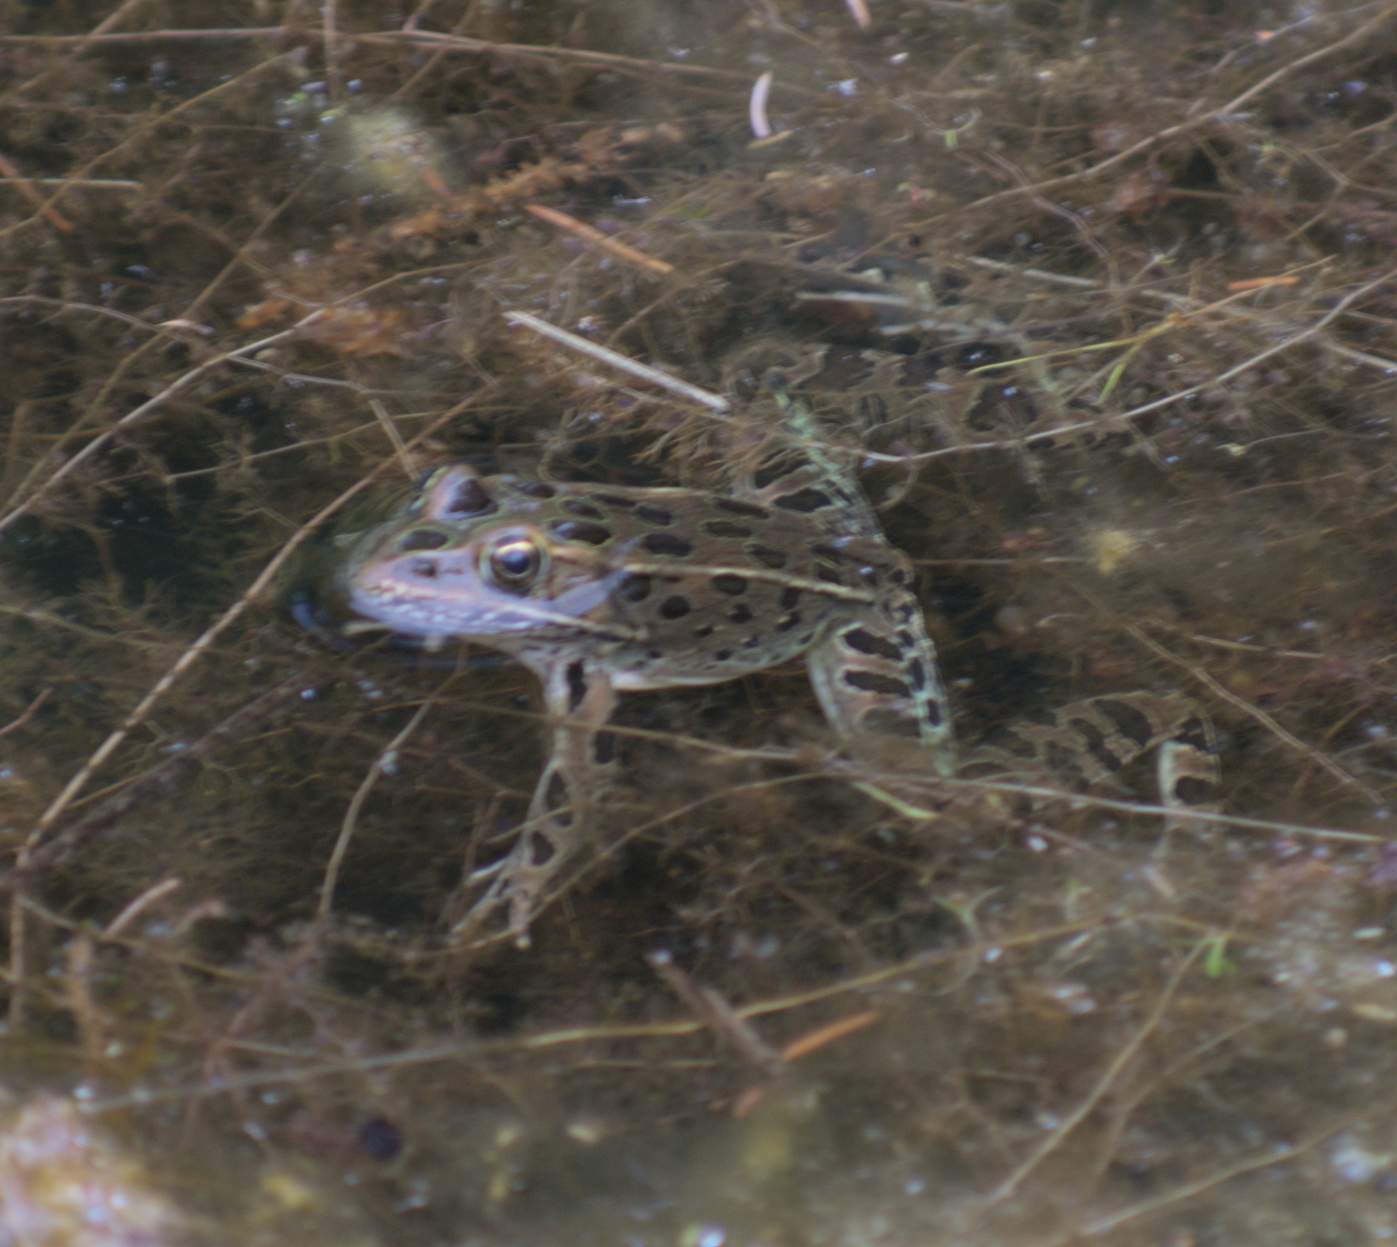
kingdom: Animalia
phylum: Chordata
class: Amphibia
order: Anura
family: Ranidae
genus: Lithobates
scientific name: Lithobates pipiens
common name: Northern leopard frog
